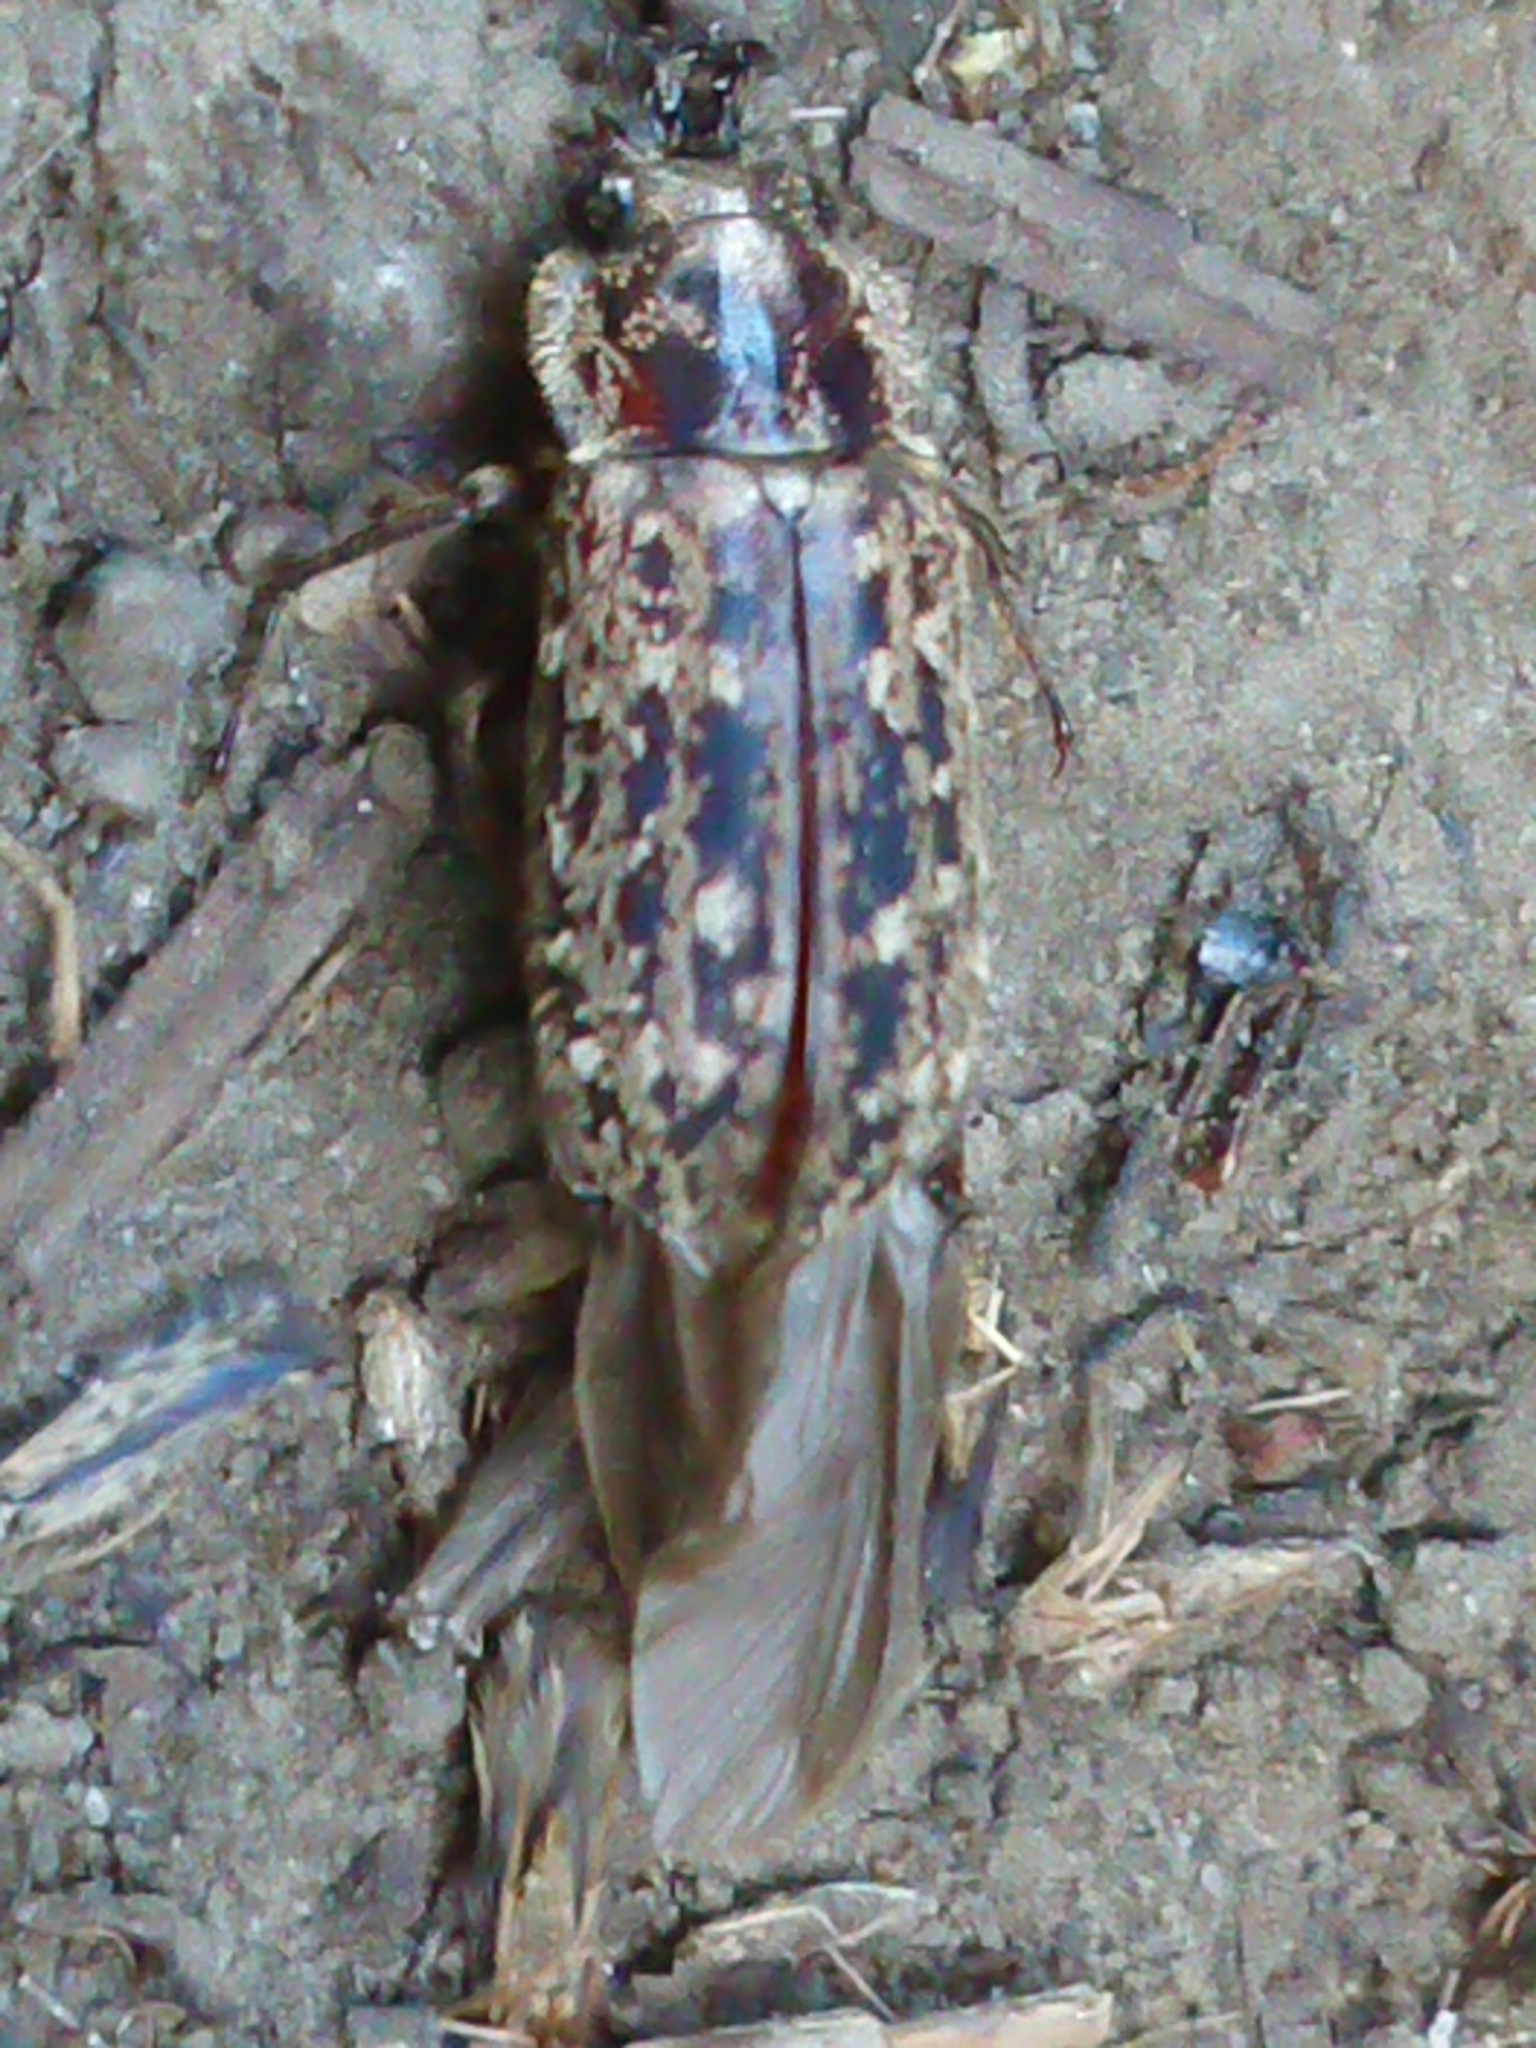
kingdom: Animalia
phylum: Arthropoda
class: Insecta
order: Coleoptera
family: Lucanidae
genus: Mitophyllus
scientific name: Mitophyllus irroratus
